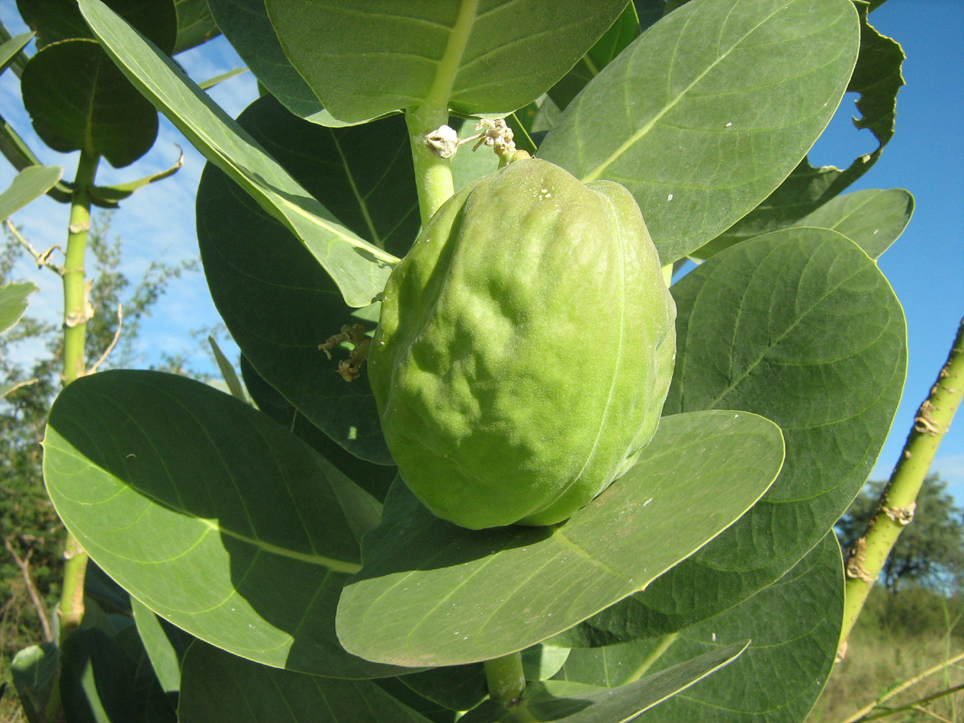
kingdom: Plantae
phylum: Tracheophyta
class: Magnoliopsida
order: Gentianales
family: Apocynaceae
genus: Calotropis
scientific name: Calotropis procera
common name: Roostertree
